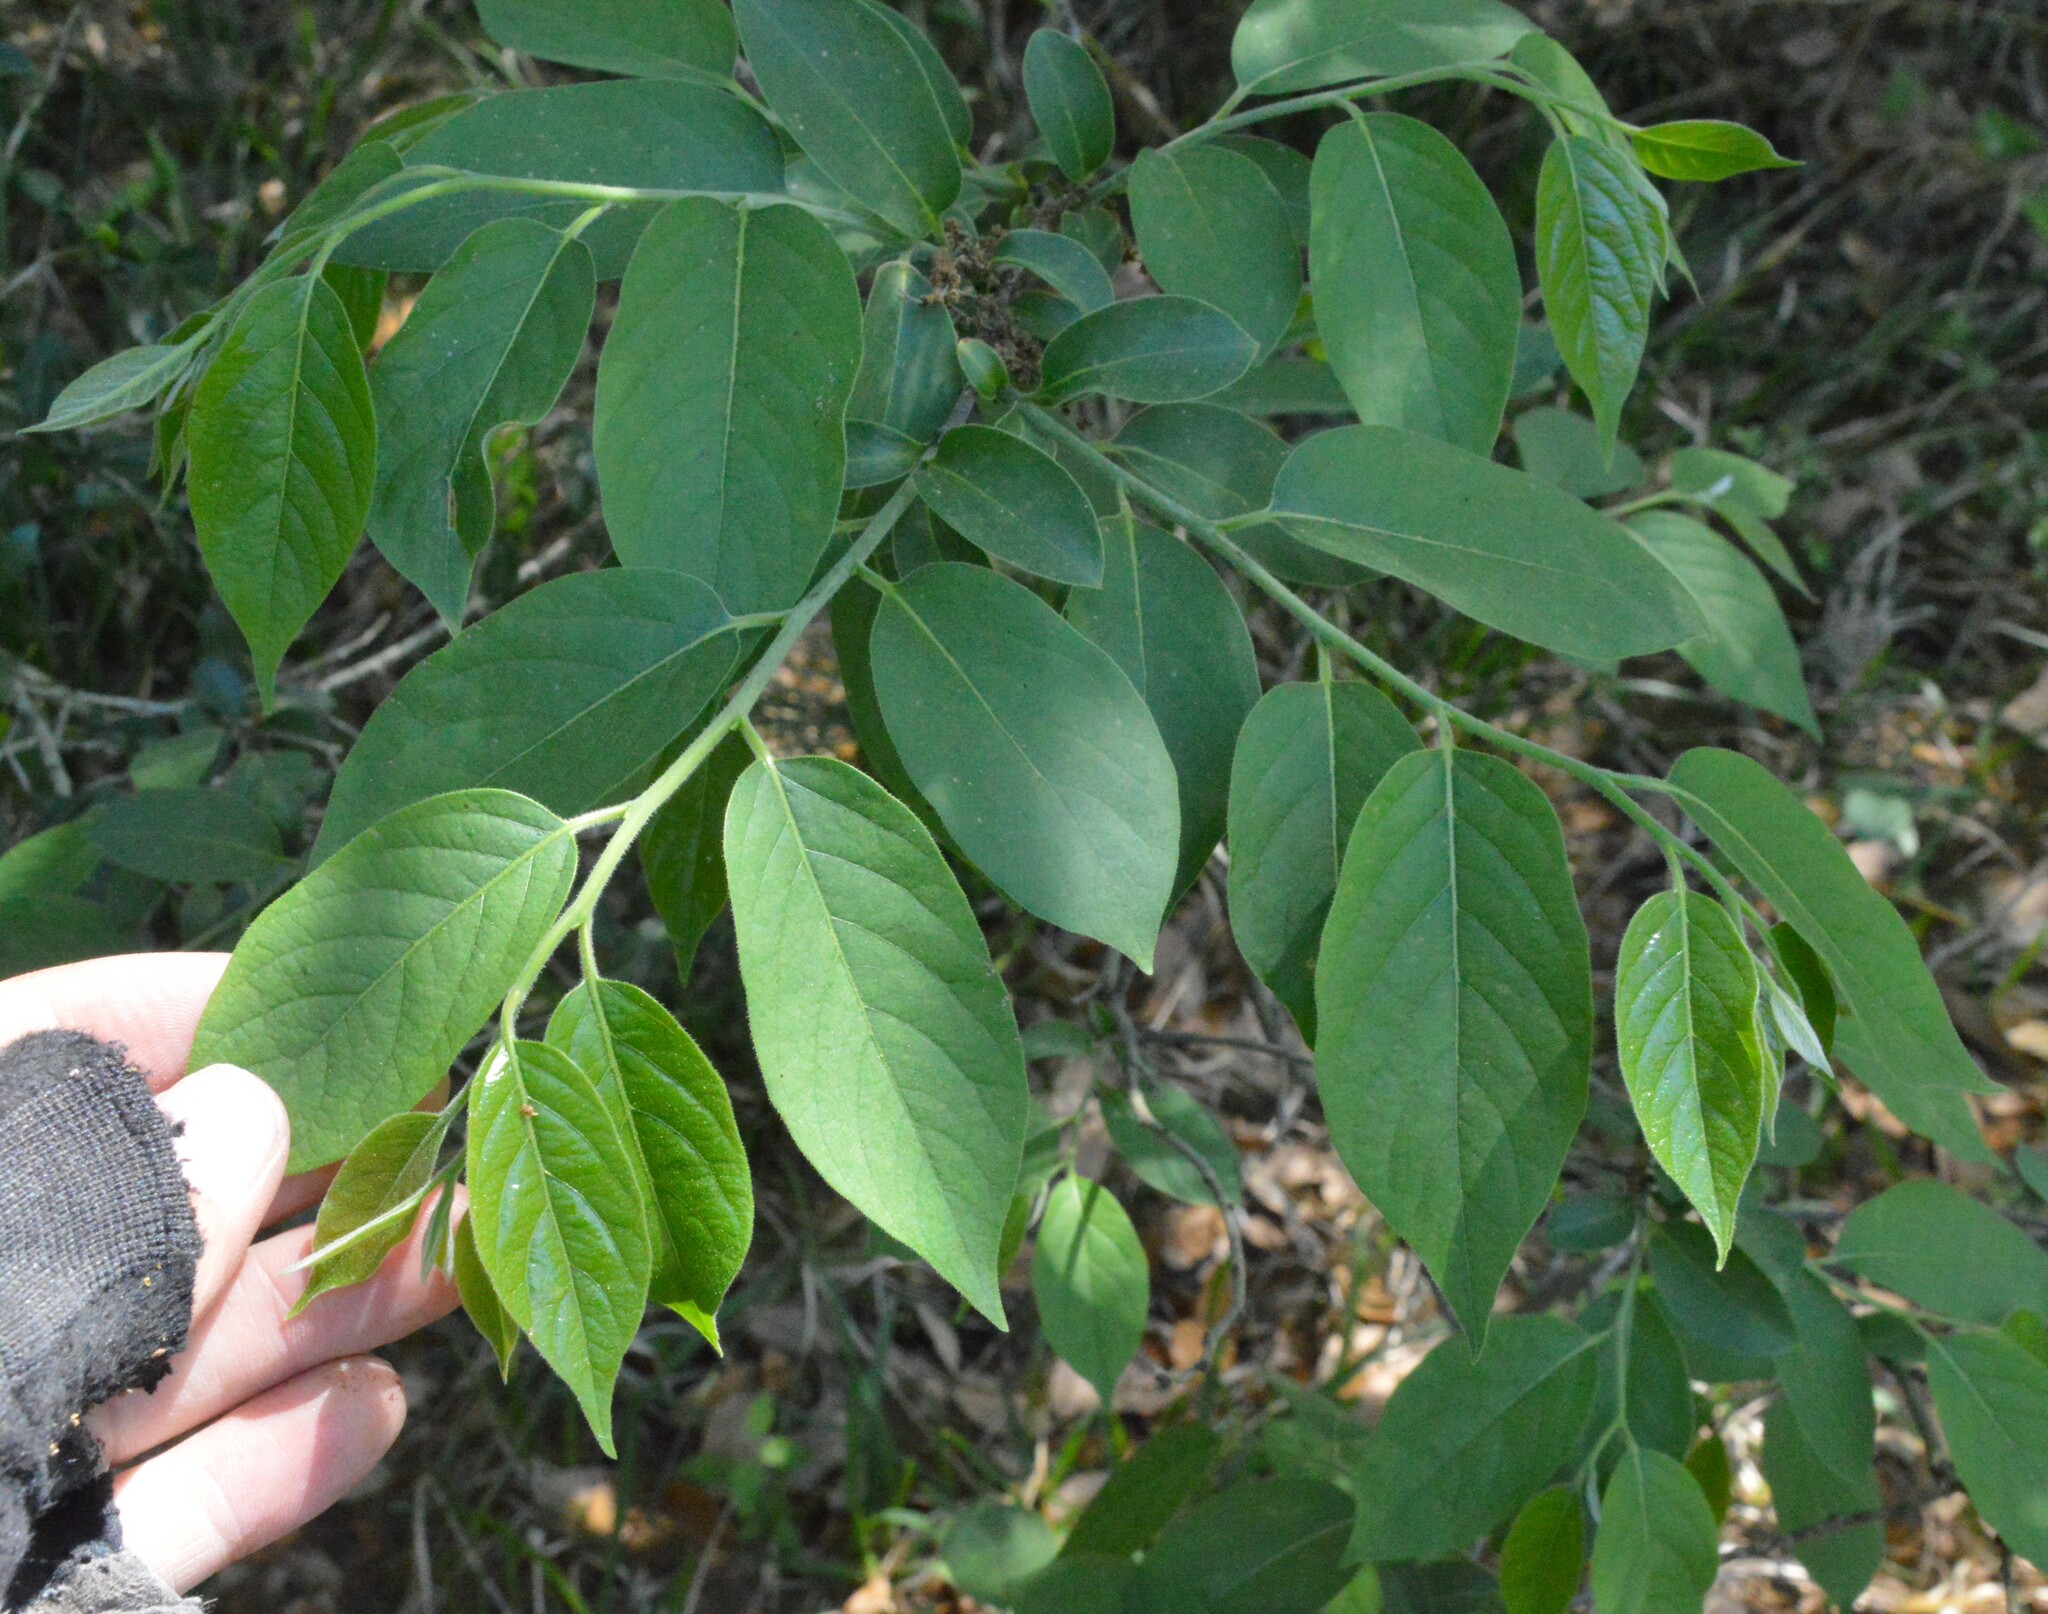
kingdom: Plantae
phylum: Tracheophyta
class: Magnoliopsida
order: Ericales
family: Ebenaceae
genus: Diospyros
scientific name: Diospyros virginiana
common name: Persimmon
